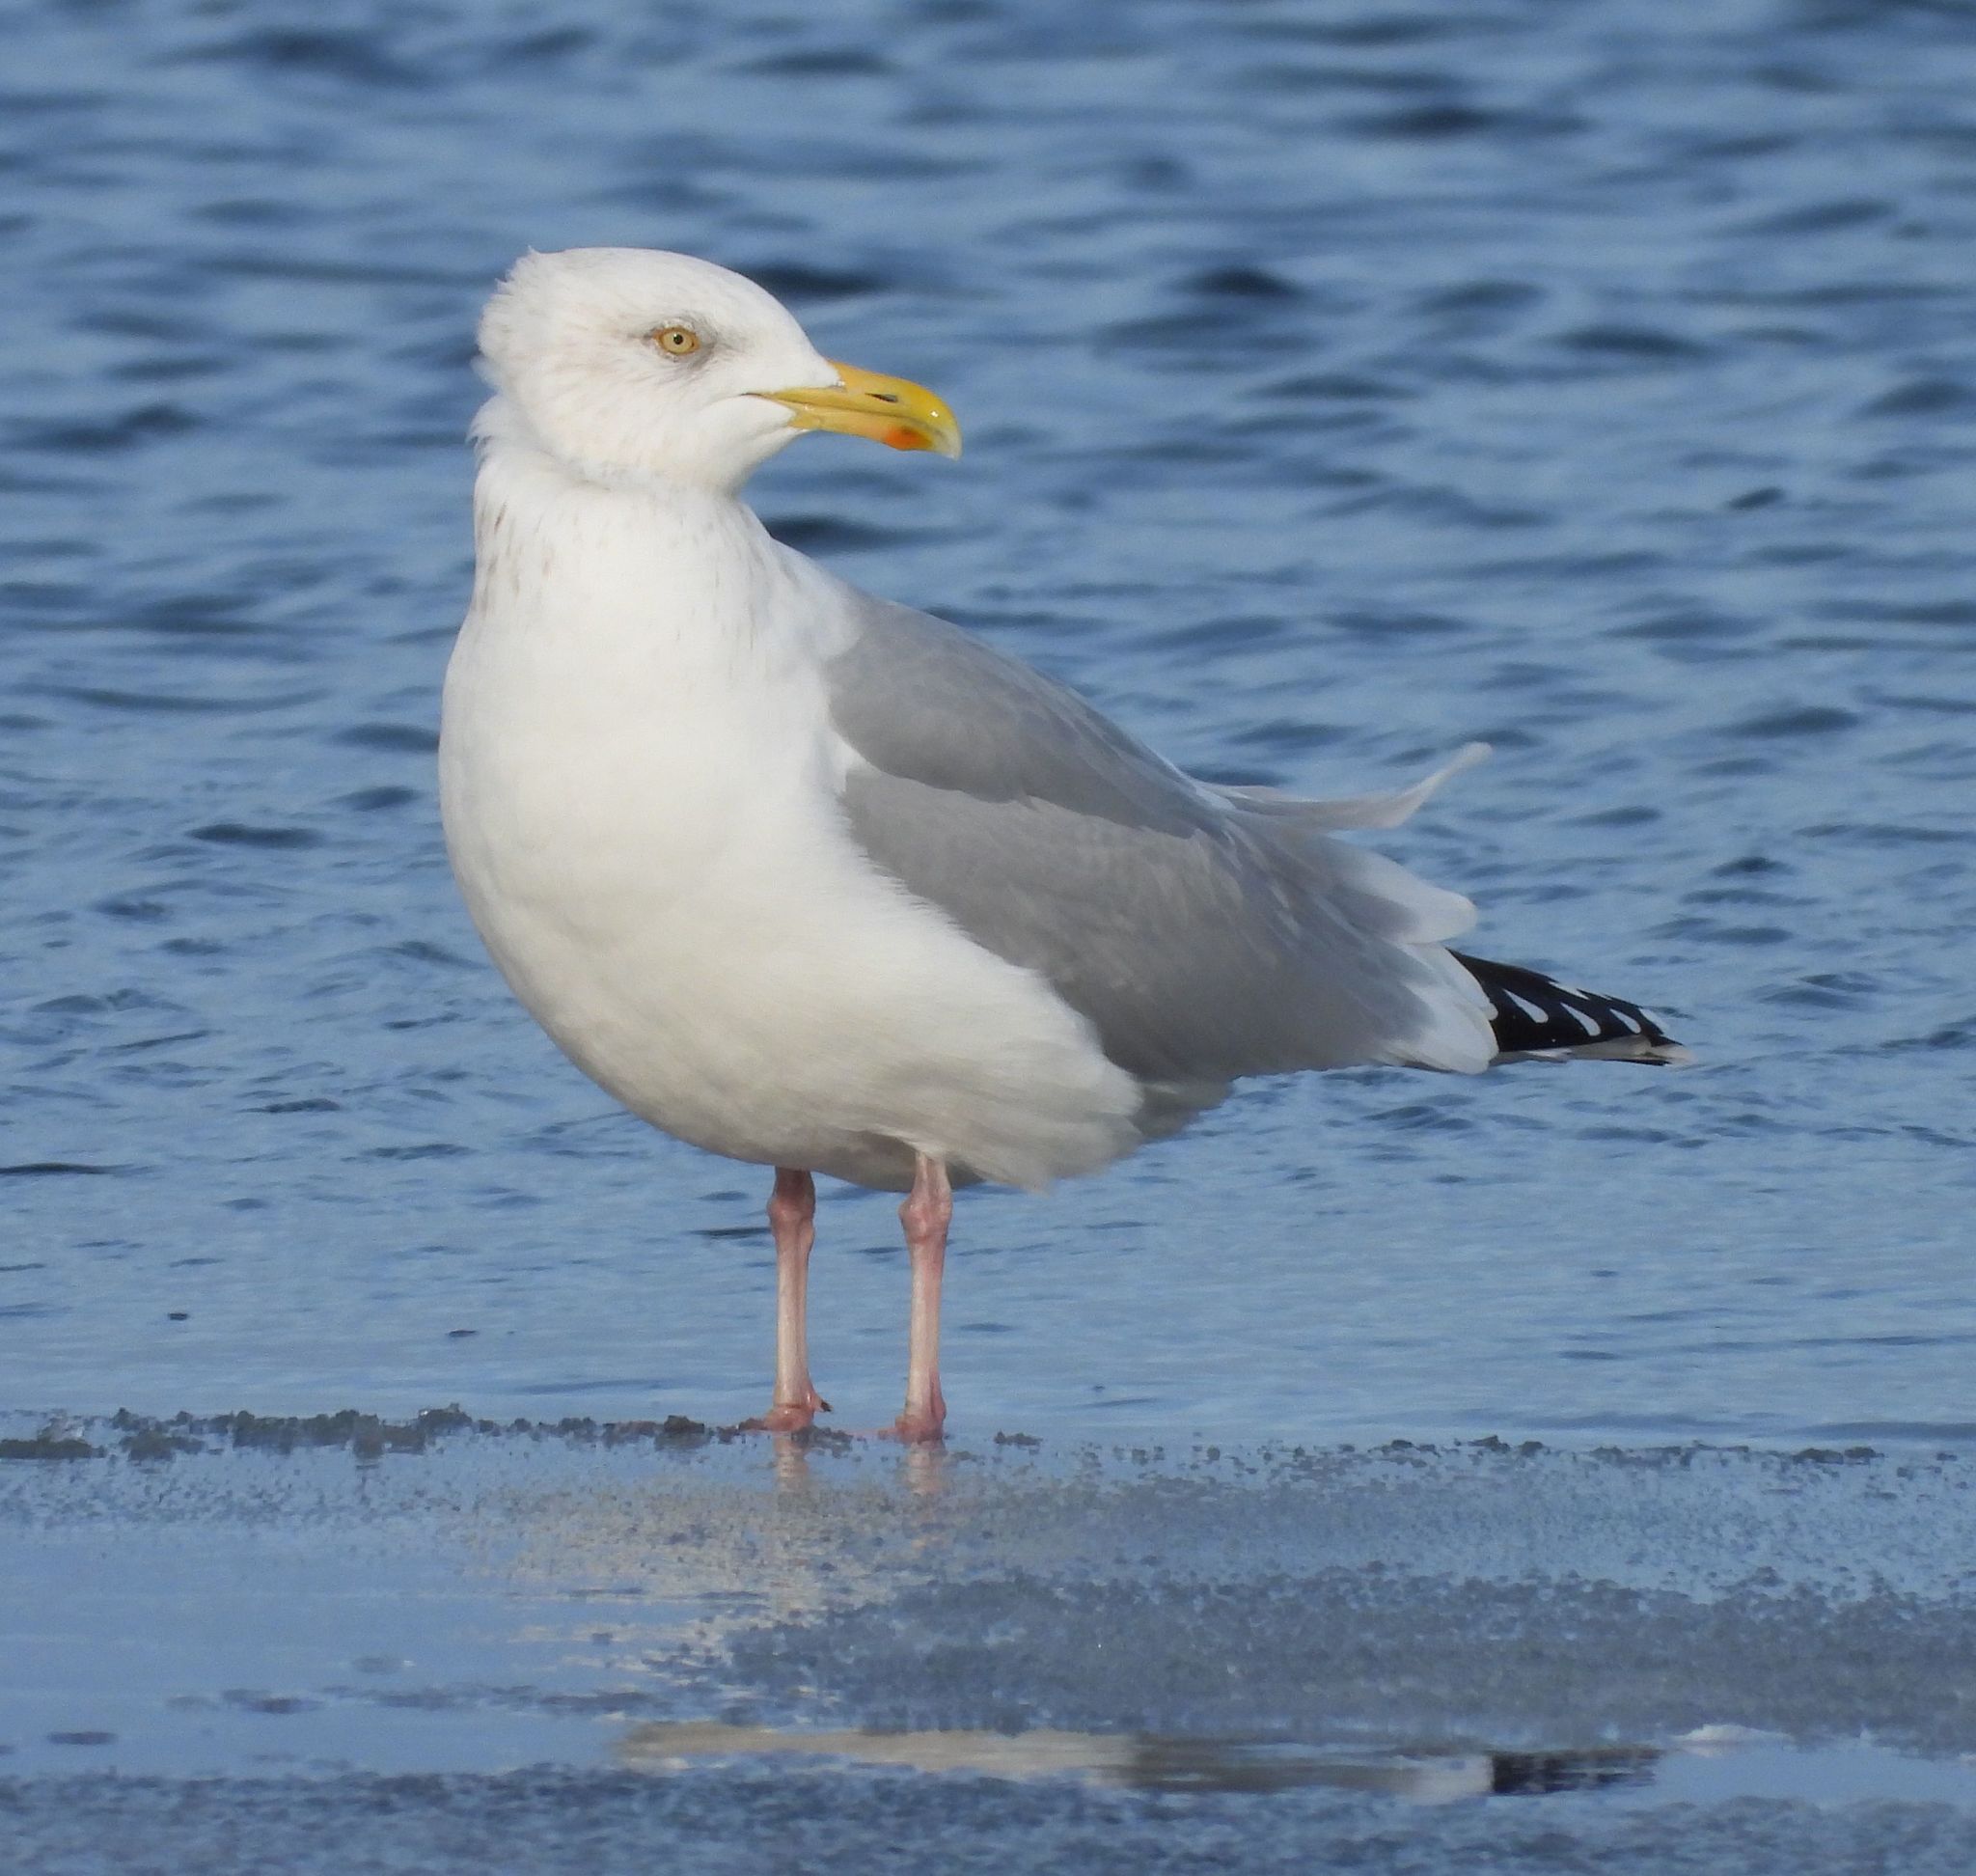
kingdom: Animalia
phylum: Chordata
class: Aves
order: Charadriiformes
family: Laridae
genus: Larus
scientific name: Larus argentatus
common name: Herring gull
